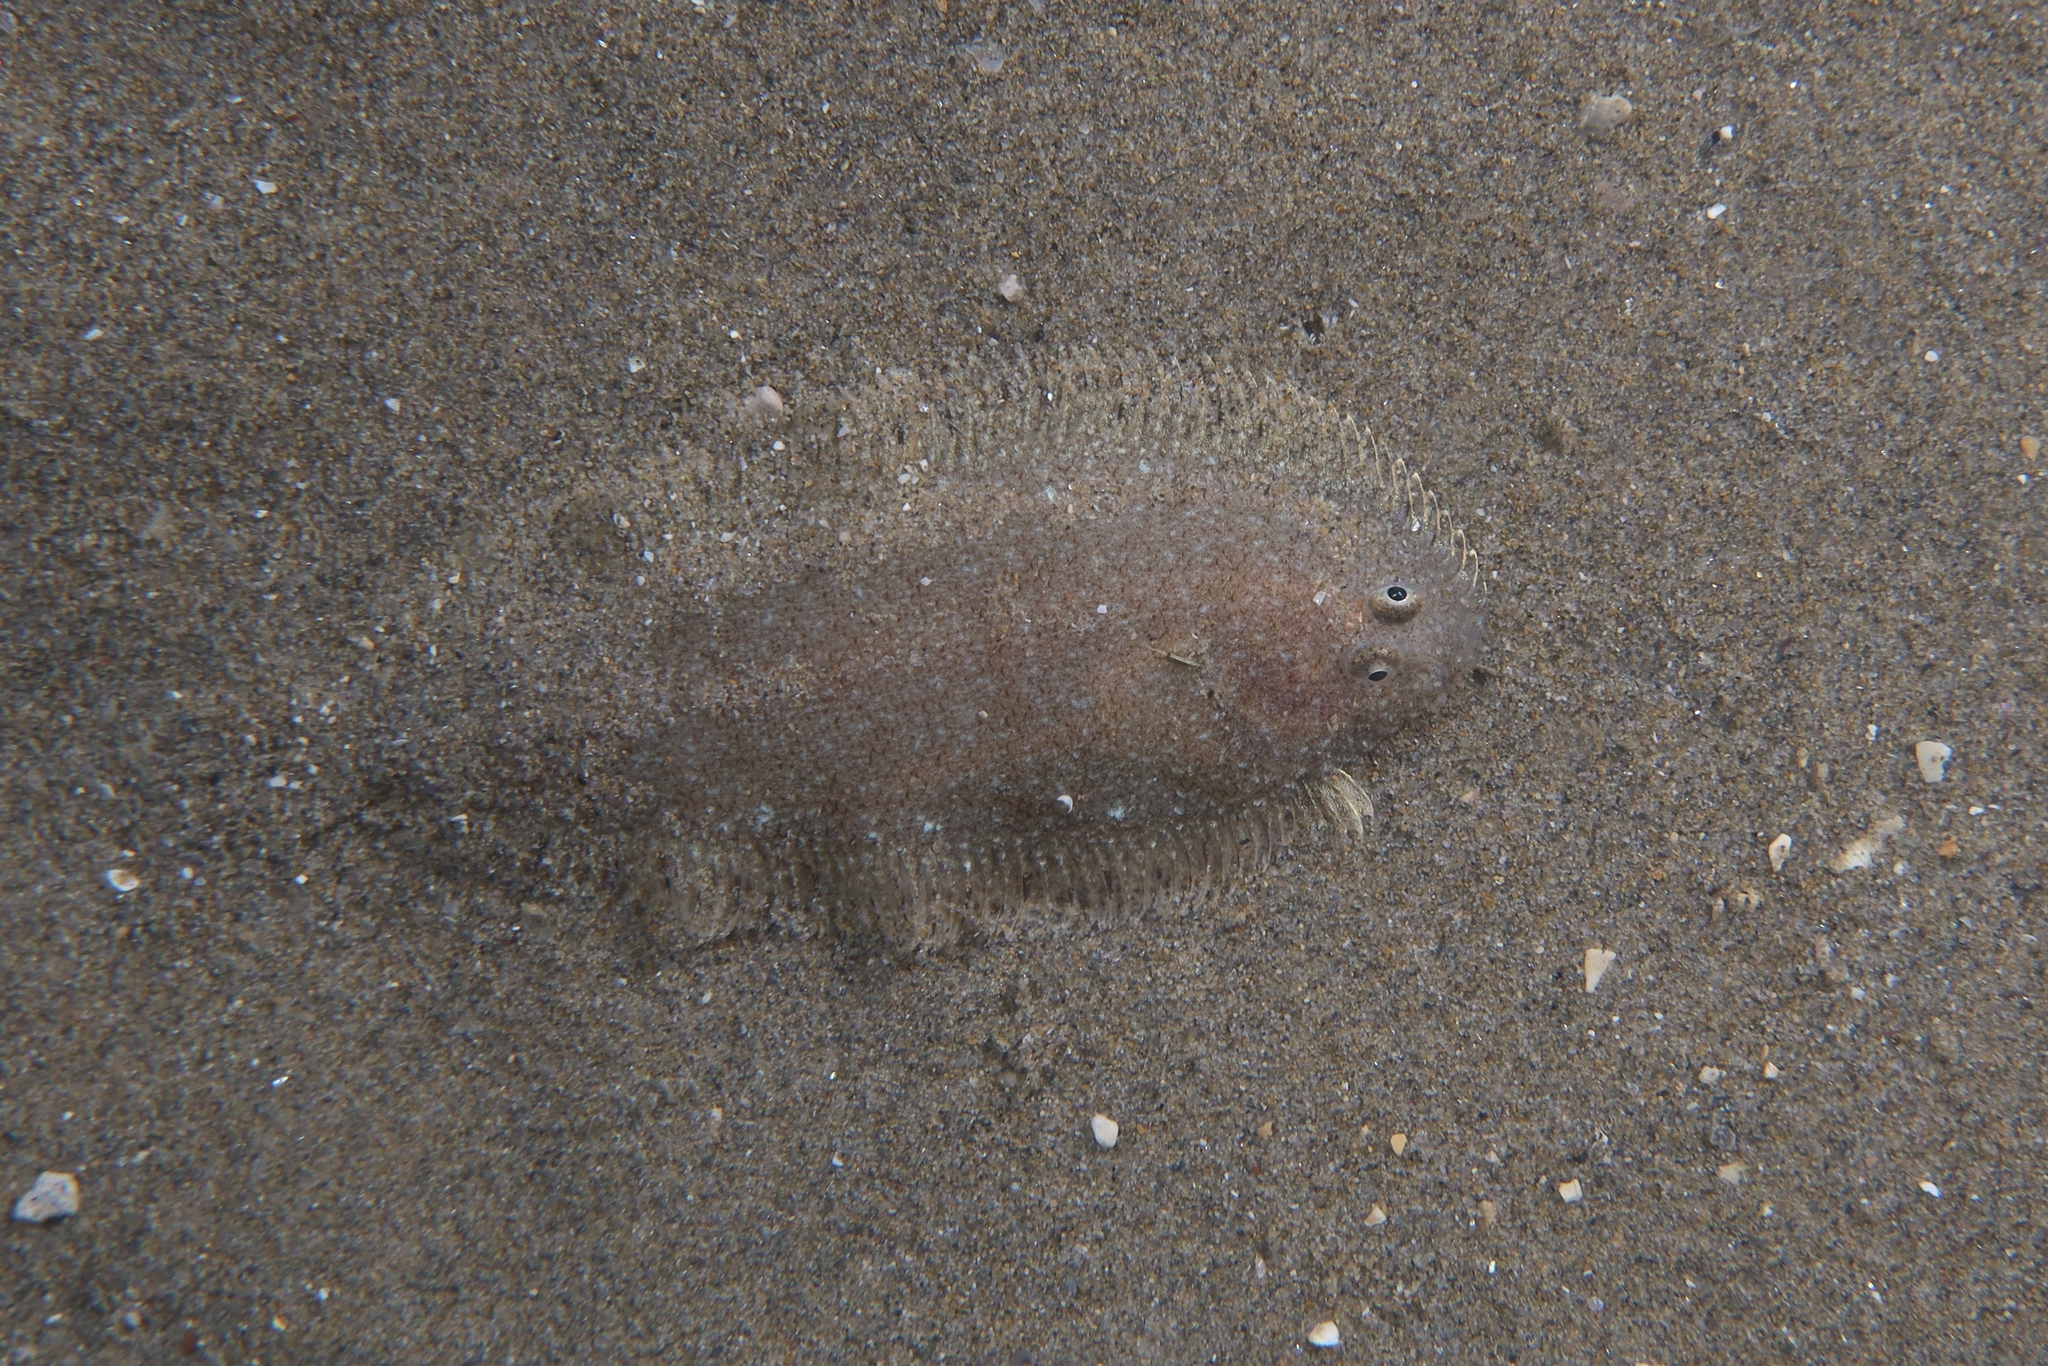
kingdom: Animalia
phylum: Chordata
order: Pleuronectiformes
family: Soleidae
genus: Buglossidium
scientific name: Buglossidium luteum
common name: Solenette
